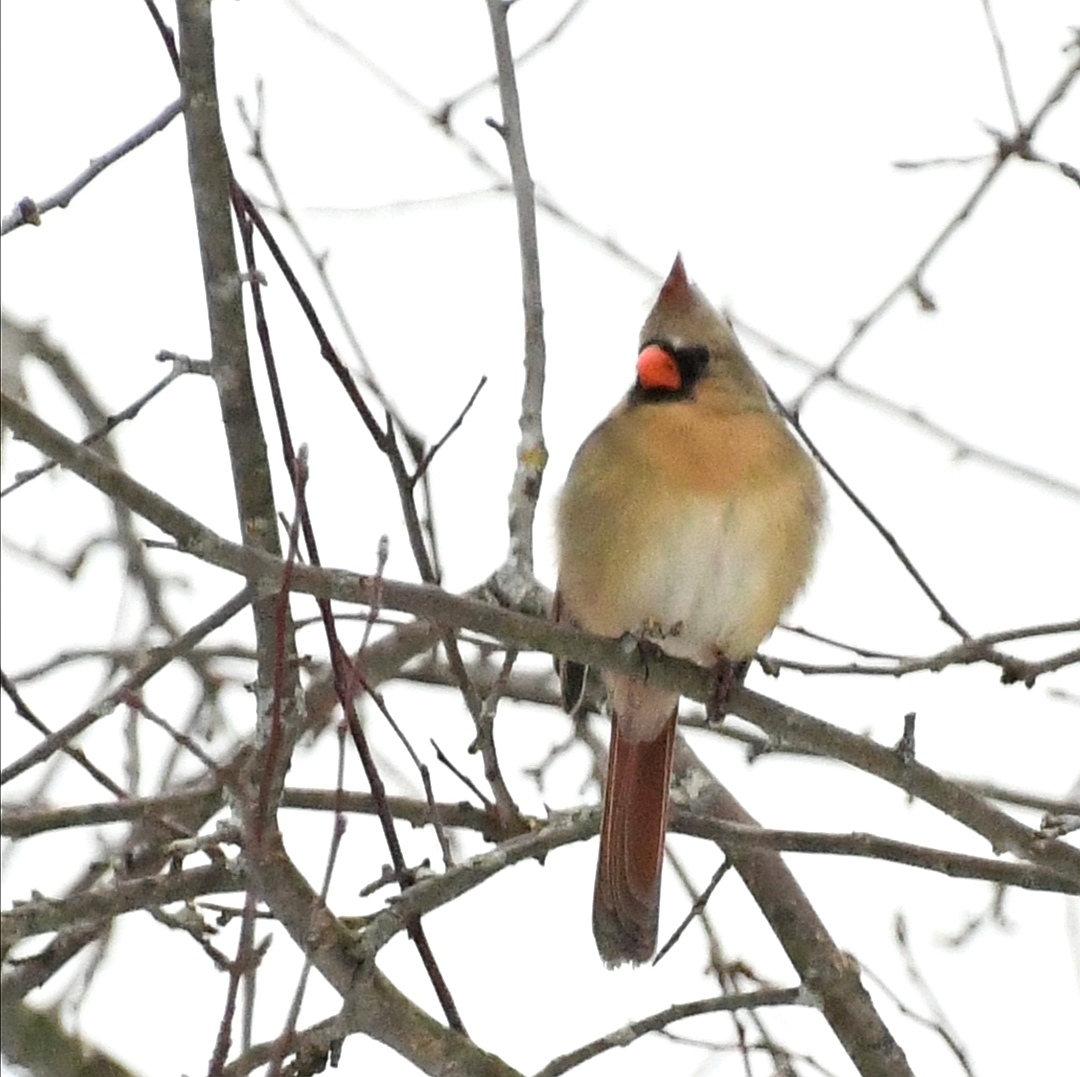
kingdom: Animalia
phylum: Chordata
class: Aves
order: Passeriformes
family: Cardinalidae
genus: Cardinalis
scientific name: Cardinalis cardinalis
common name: Northern cardinal
